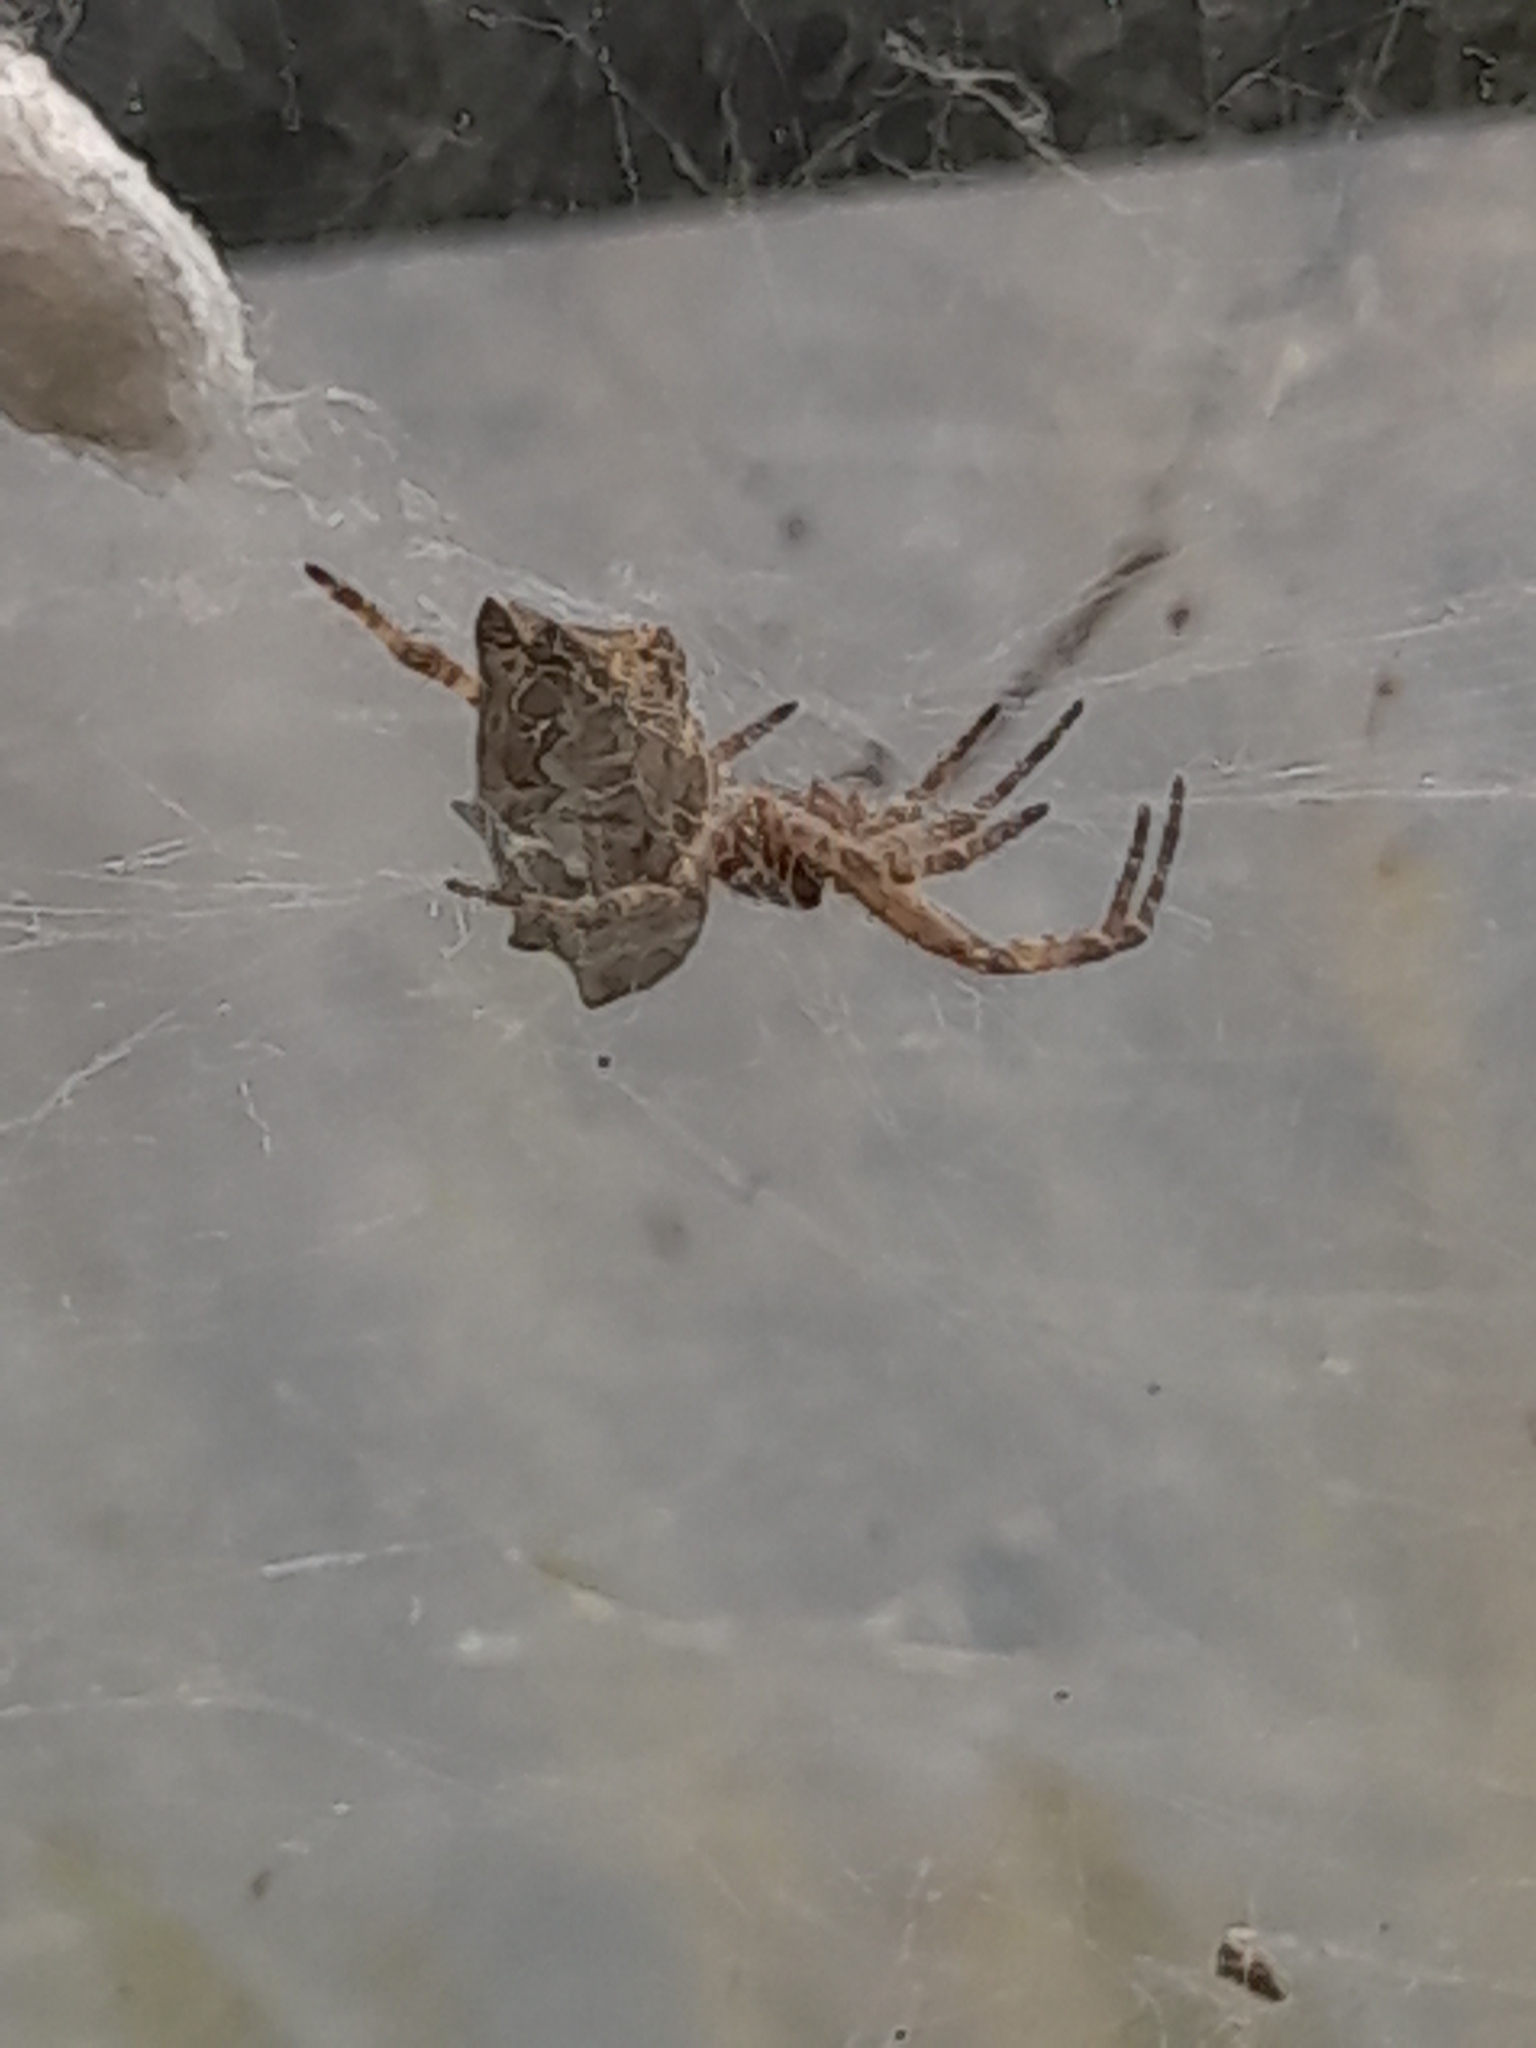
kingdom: Animalia
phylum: Arthropoda
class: Arachnida
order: Araneae
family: Araneidae
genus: Cyrtophora
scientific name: Cyrtophora citricola
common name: Orb weavers
